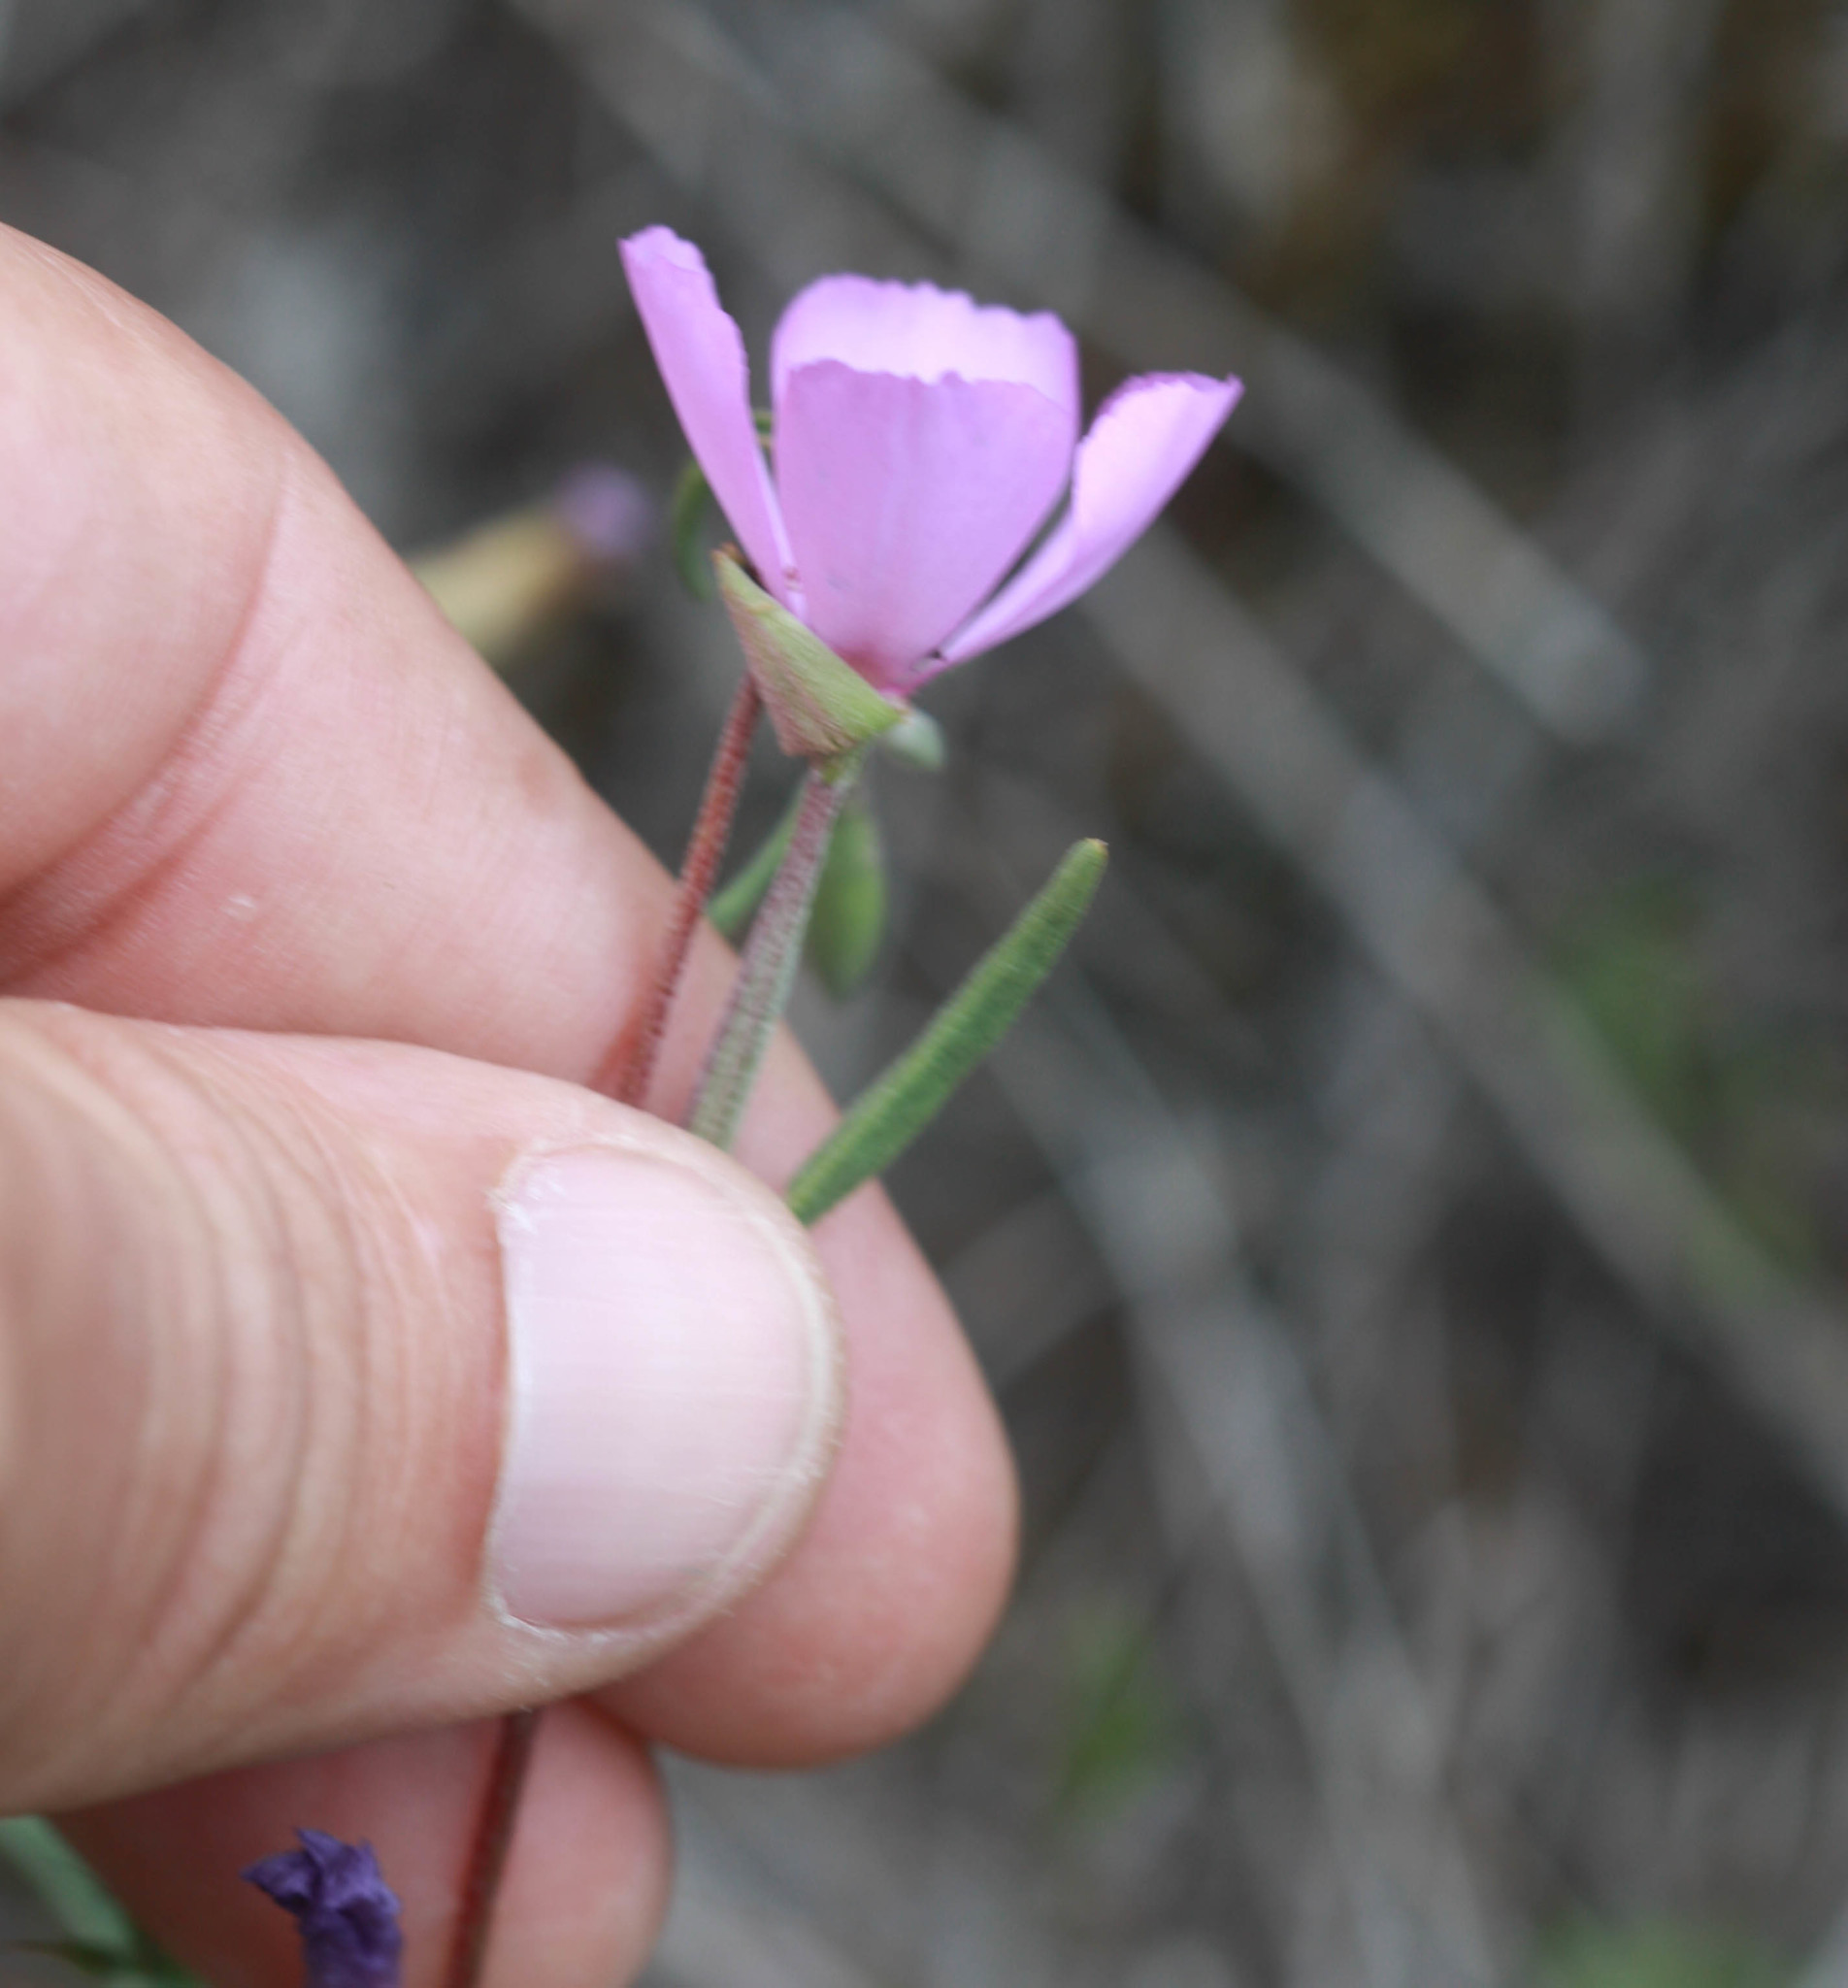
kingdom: Plantae
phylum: Tracheophyta
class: Magnoliopsida
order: Myrtales
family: Onagraceae
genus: Clarkia
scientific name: Clarkia gracilis
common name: Graceful clarkia
